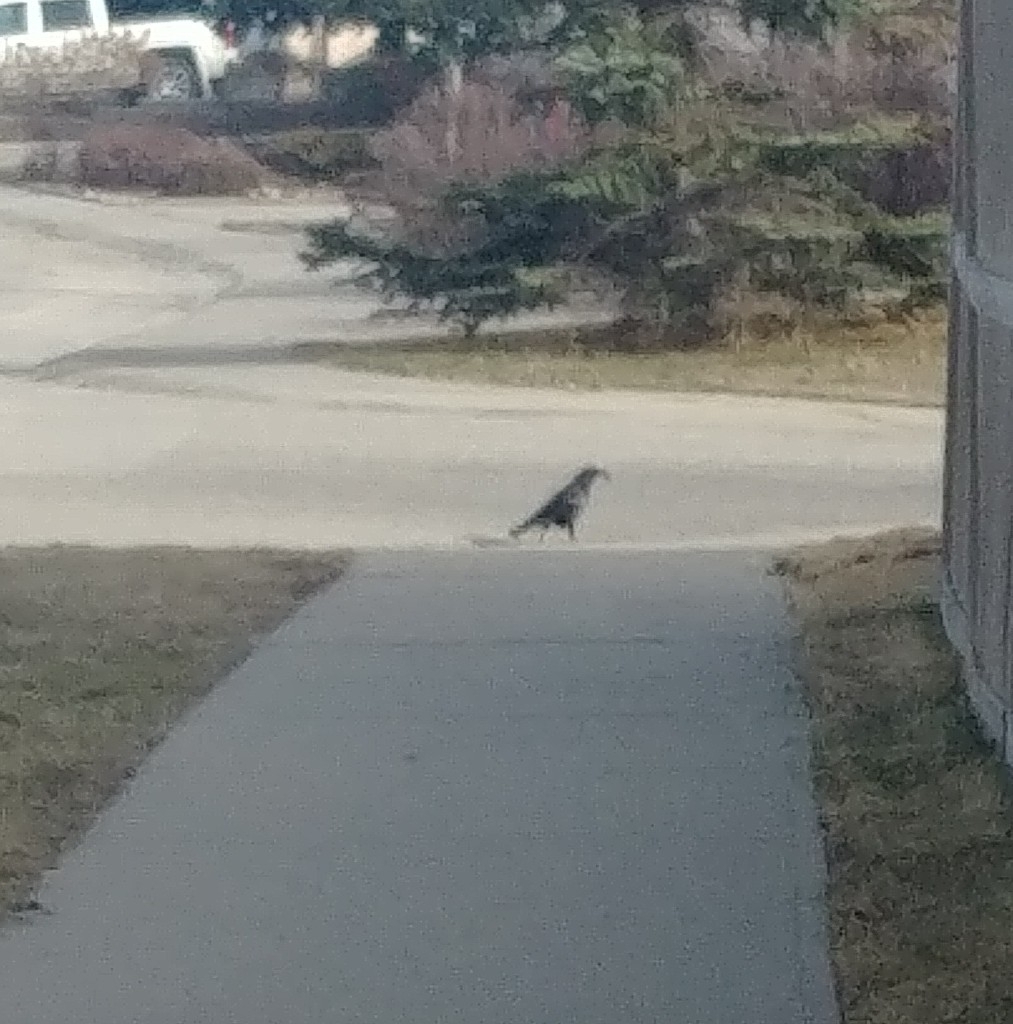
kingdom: Animalia
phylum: Chordata
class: Aves
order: Passeriformes
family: Corvidae
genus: Corvus
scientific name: Corvus brachyrhynchos
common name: American crow
